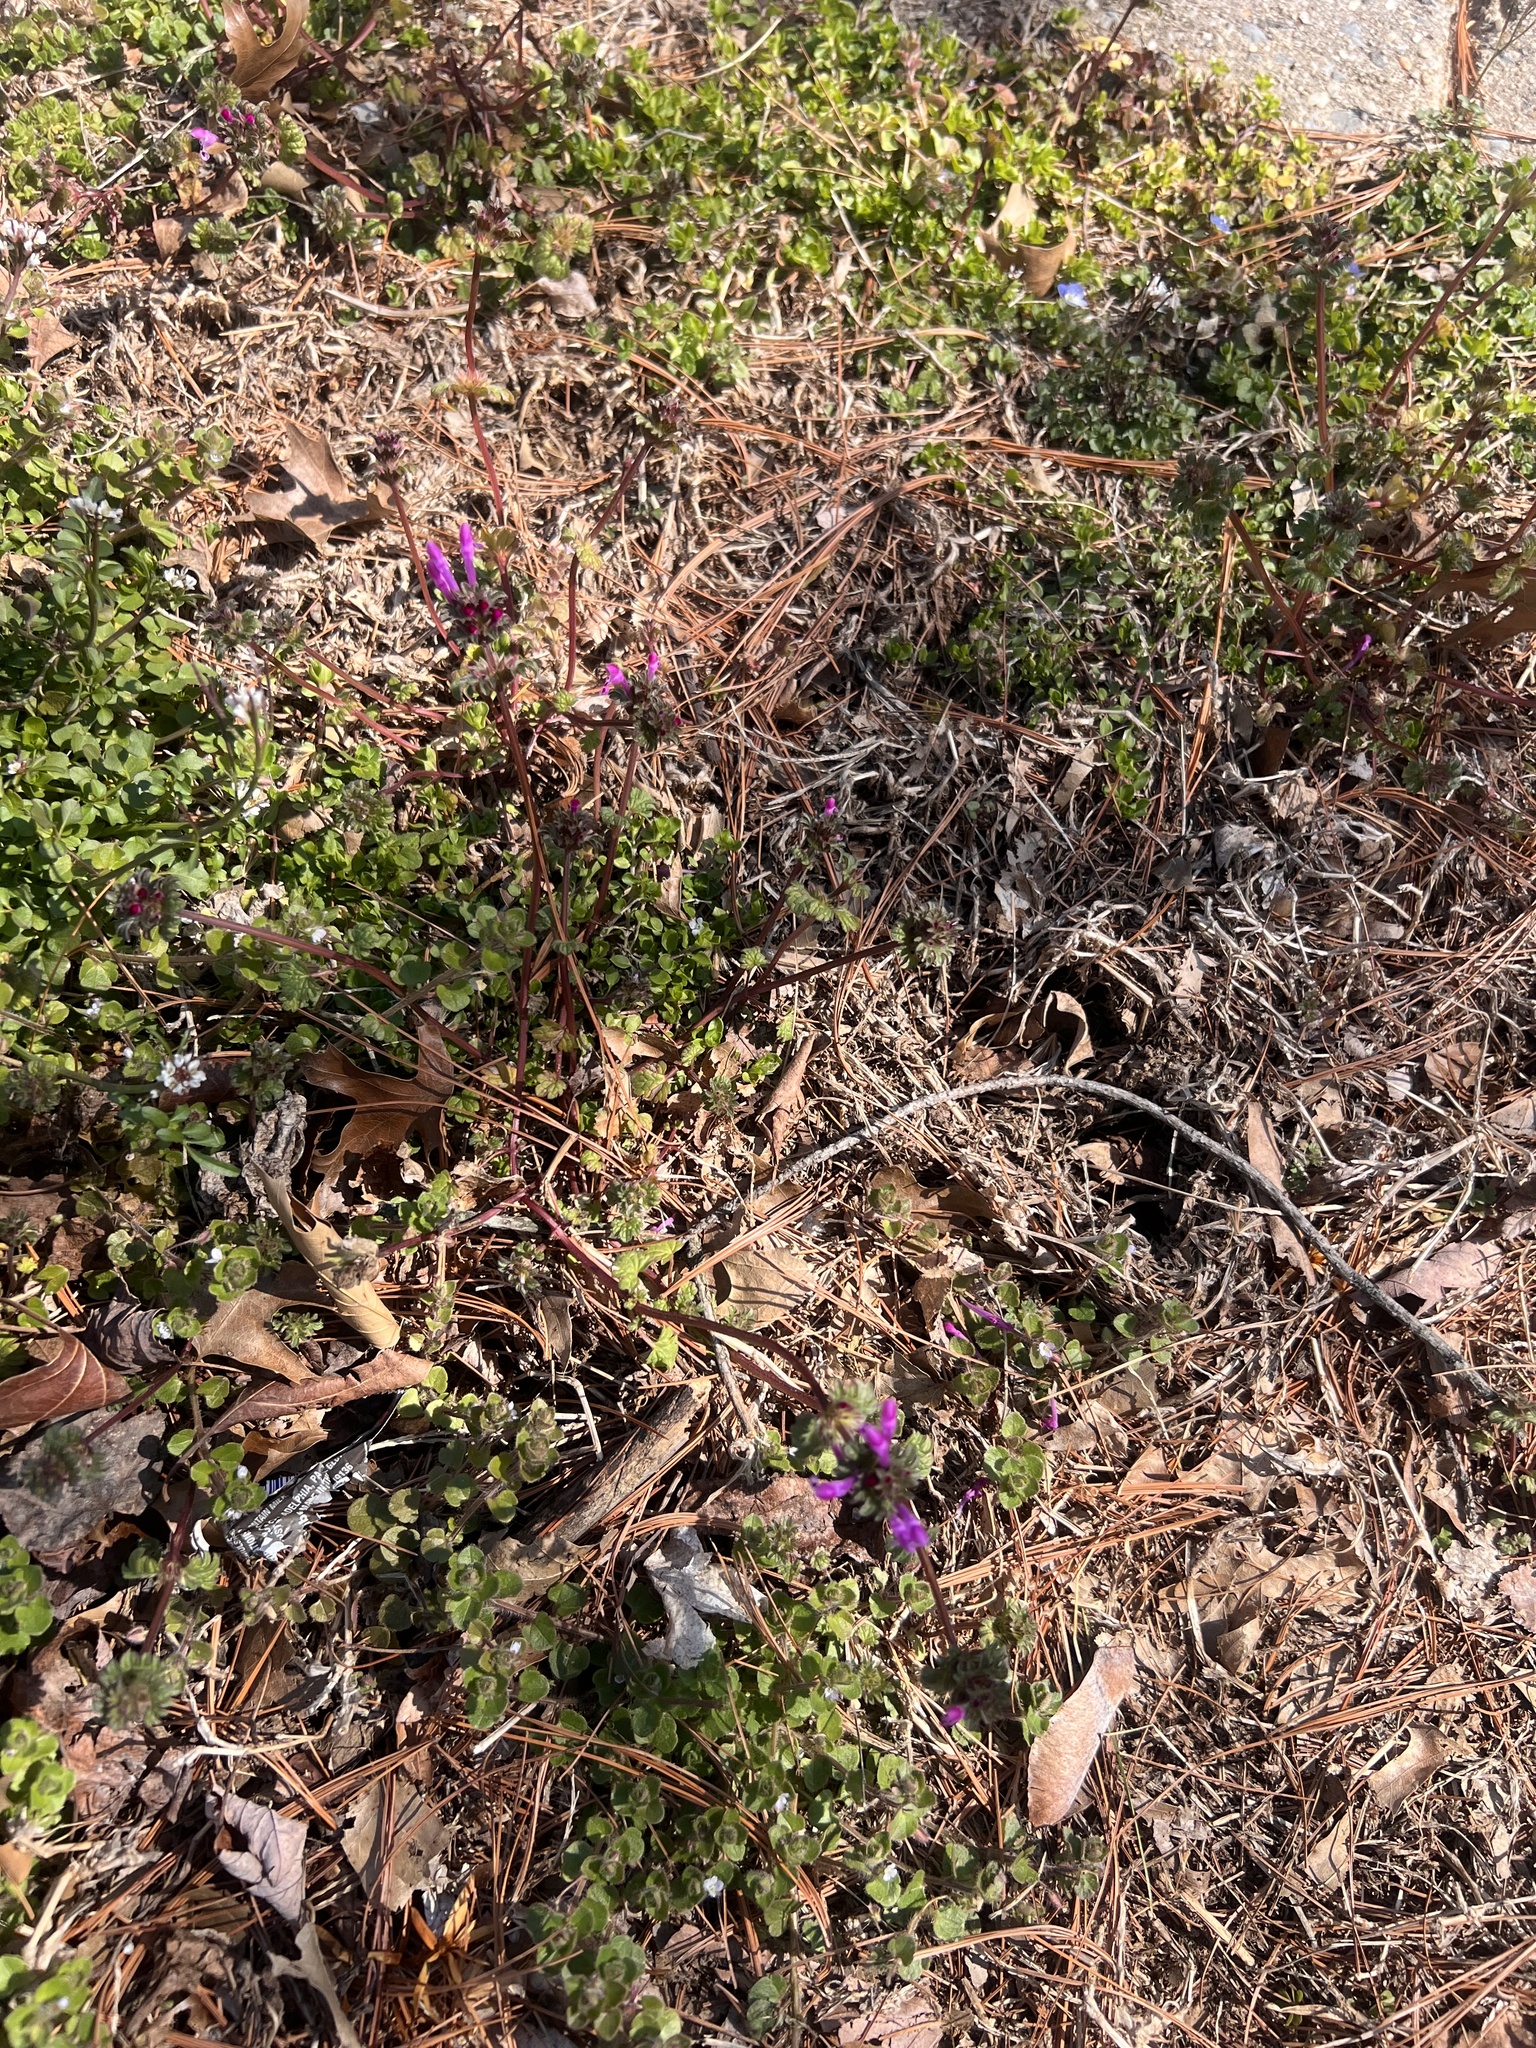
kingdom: Plantae
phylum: Tracheophyta
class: Magnoliopsida
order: Lamiales
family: Lamiaceae
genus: Lamium
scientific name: Lamium amplexicaule
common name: Henbit dead-nettle
